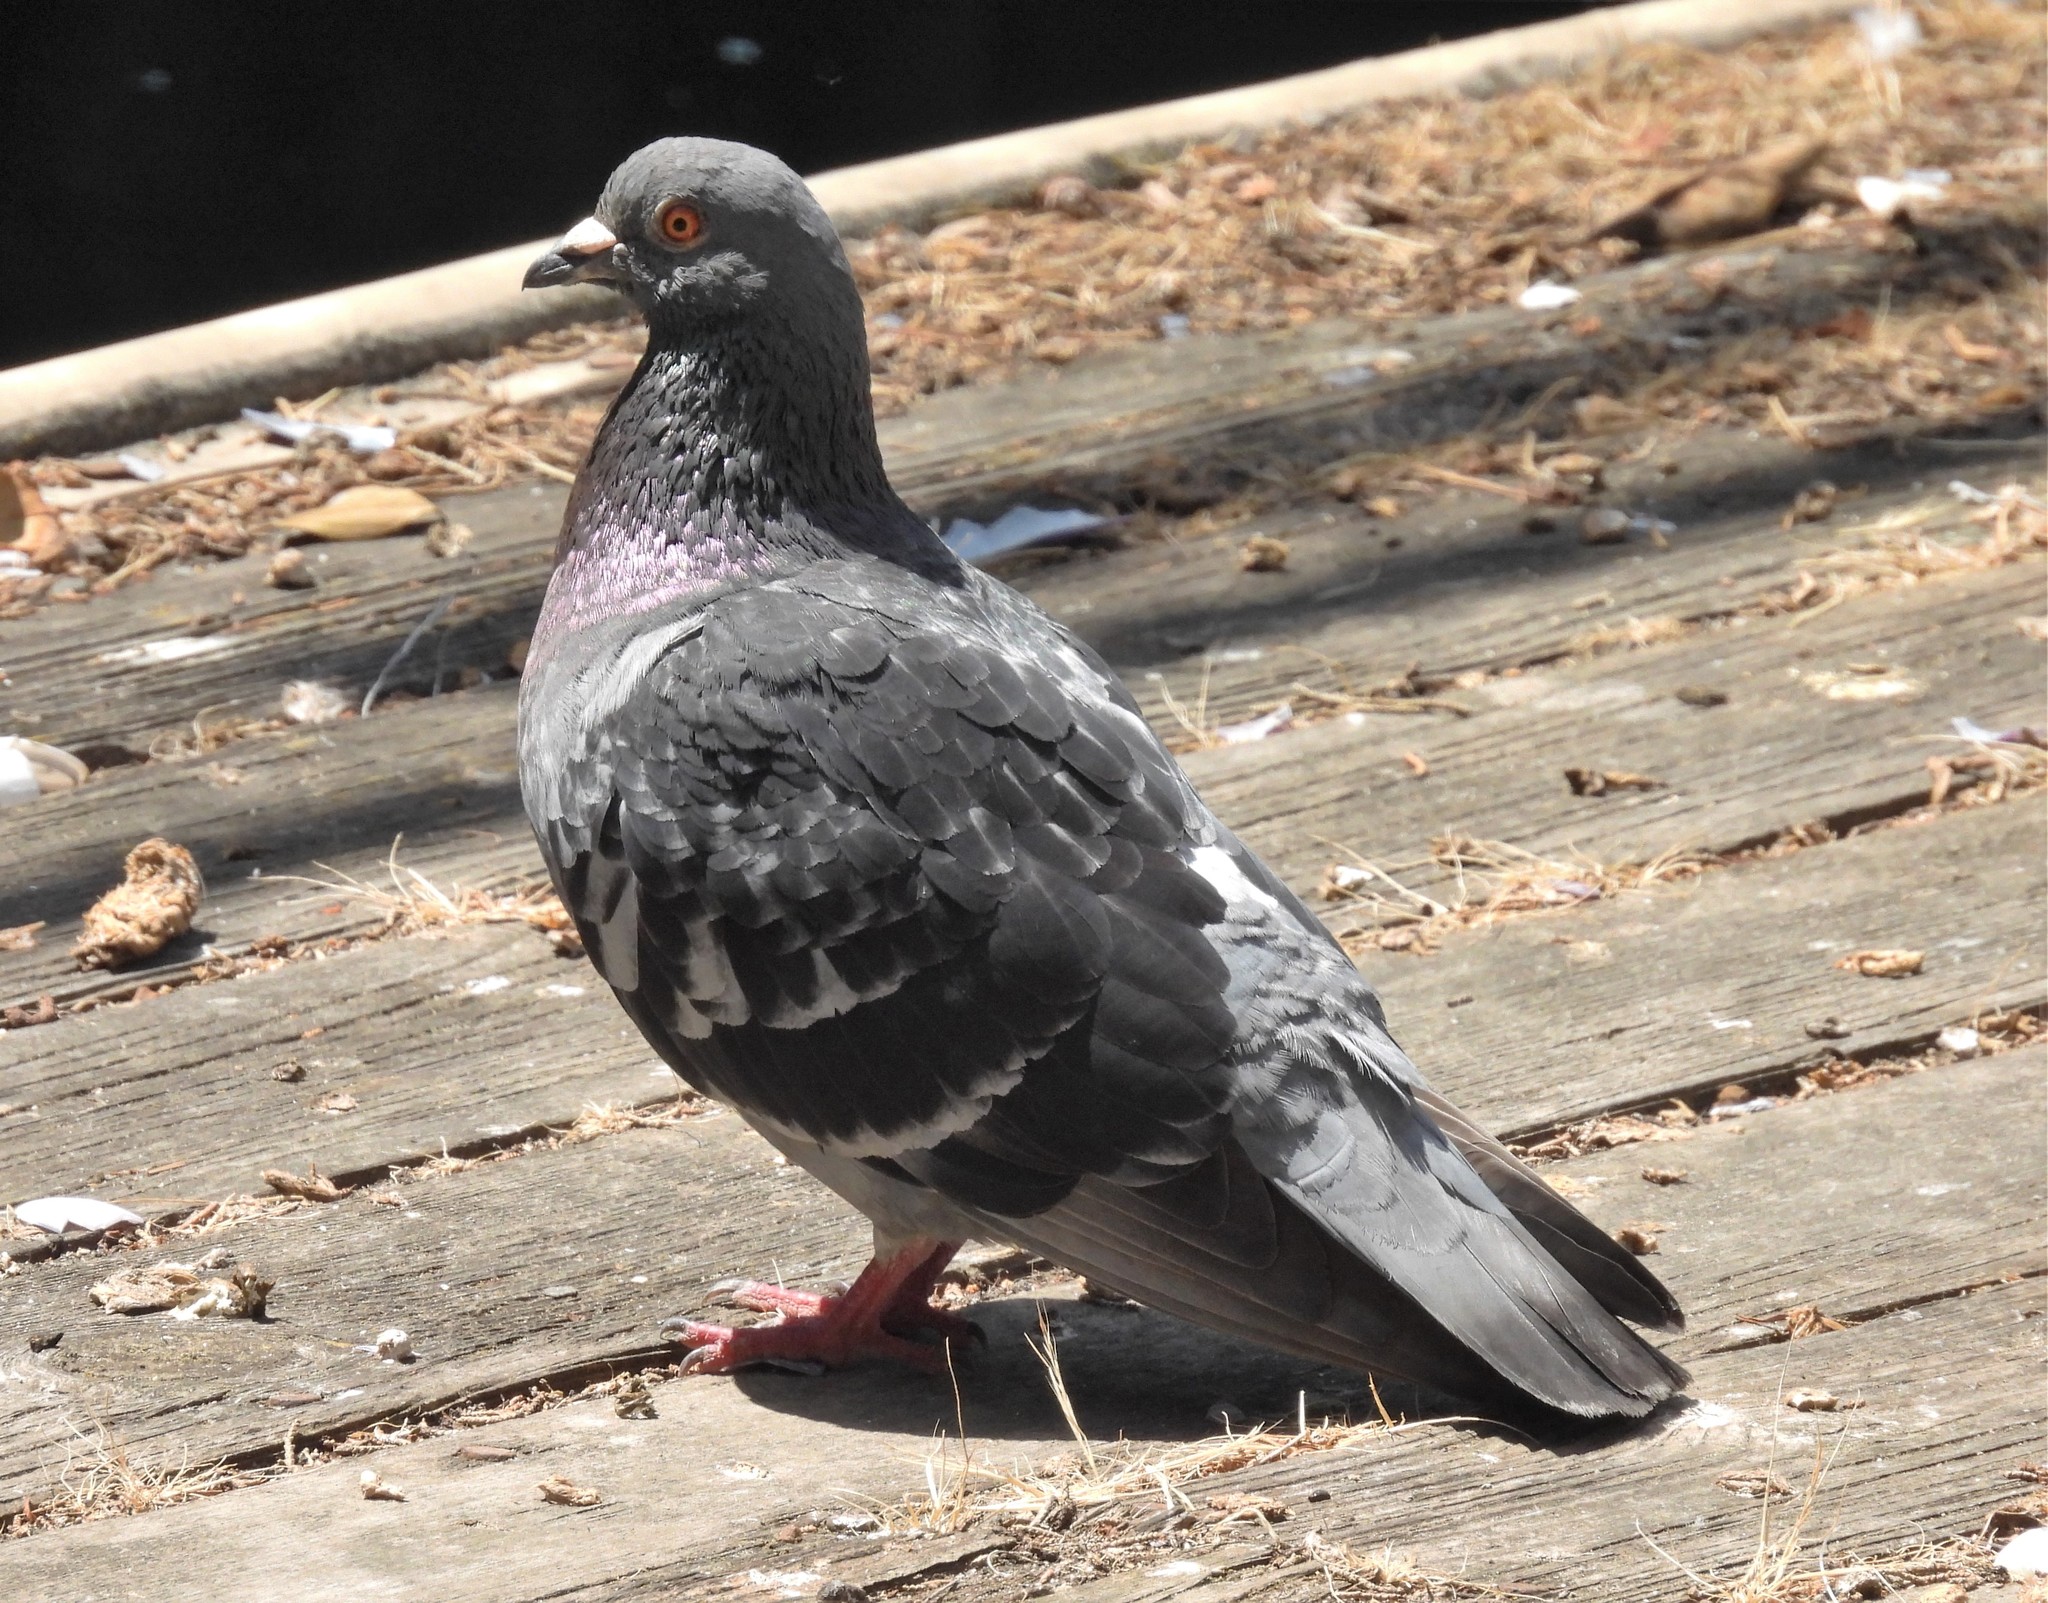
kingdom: Animalia
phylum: Chordata
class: Aves
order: Columbiformes
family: Columbidae
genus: Columba
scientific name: Columba livia
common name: Rock pigeon
